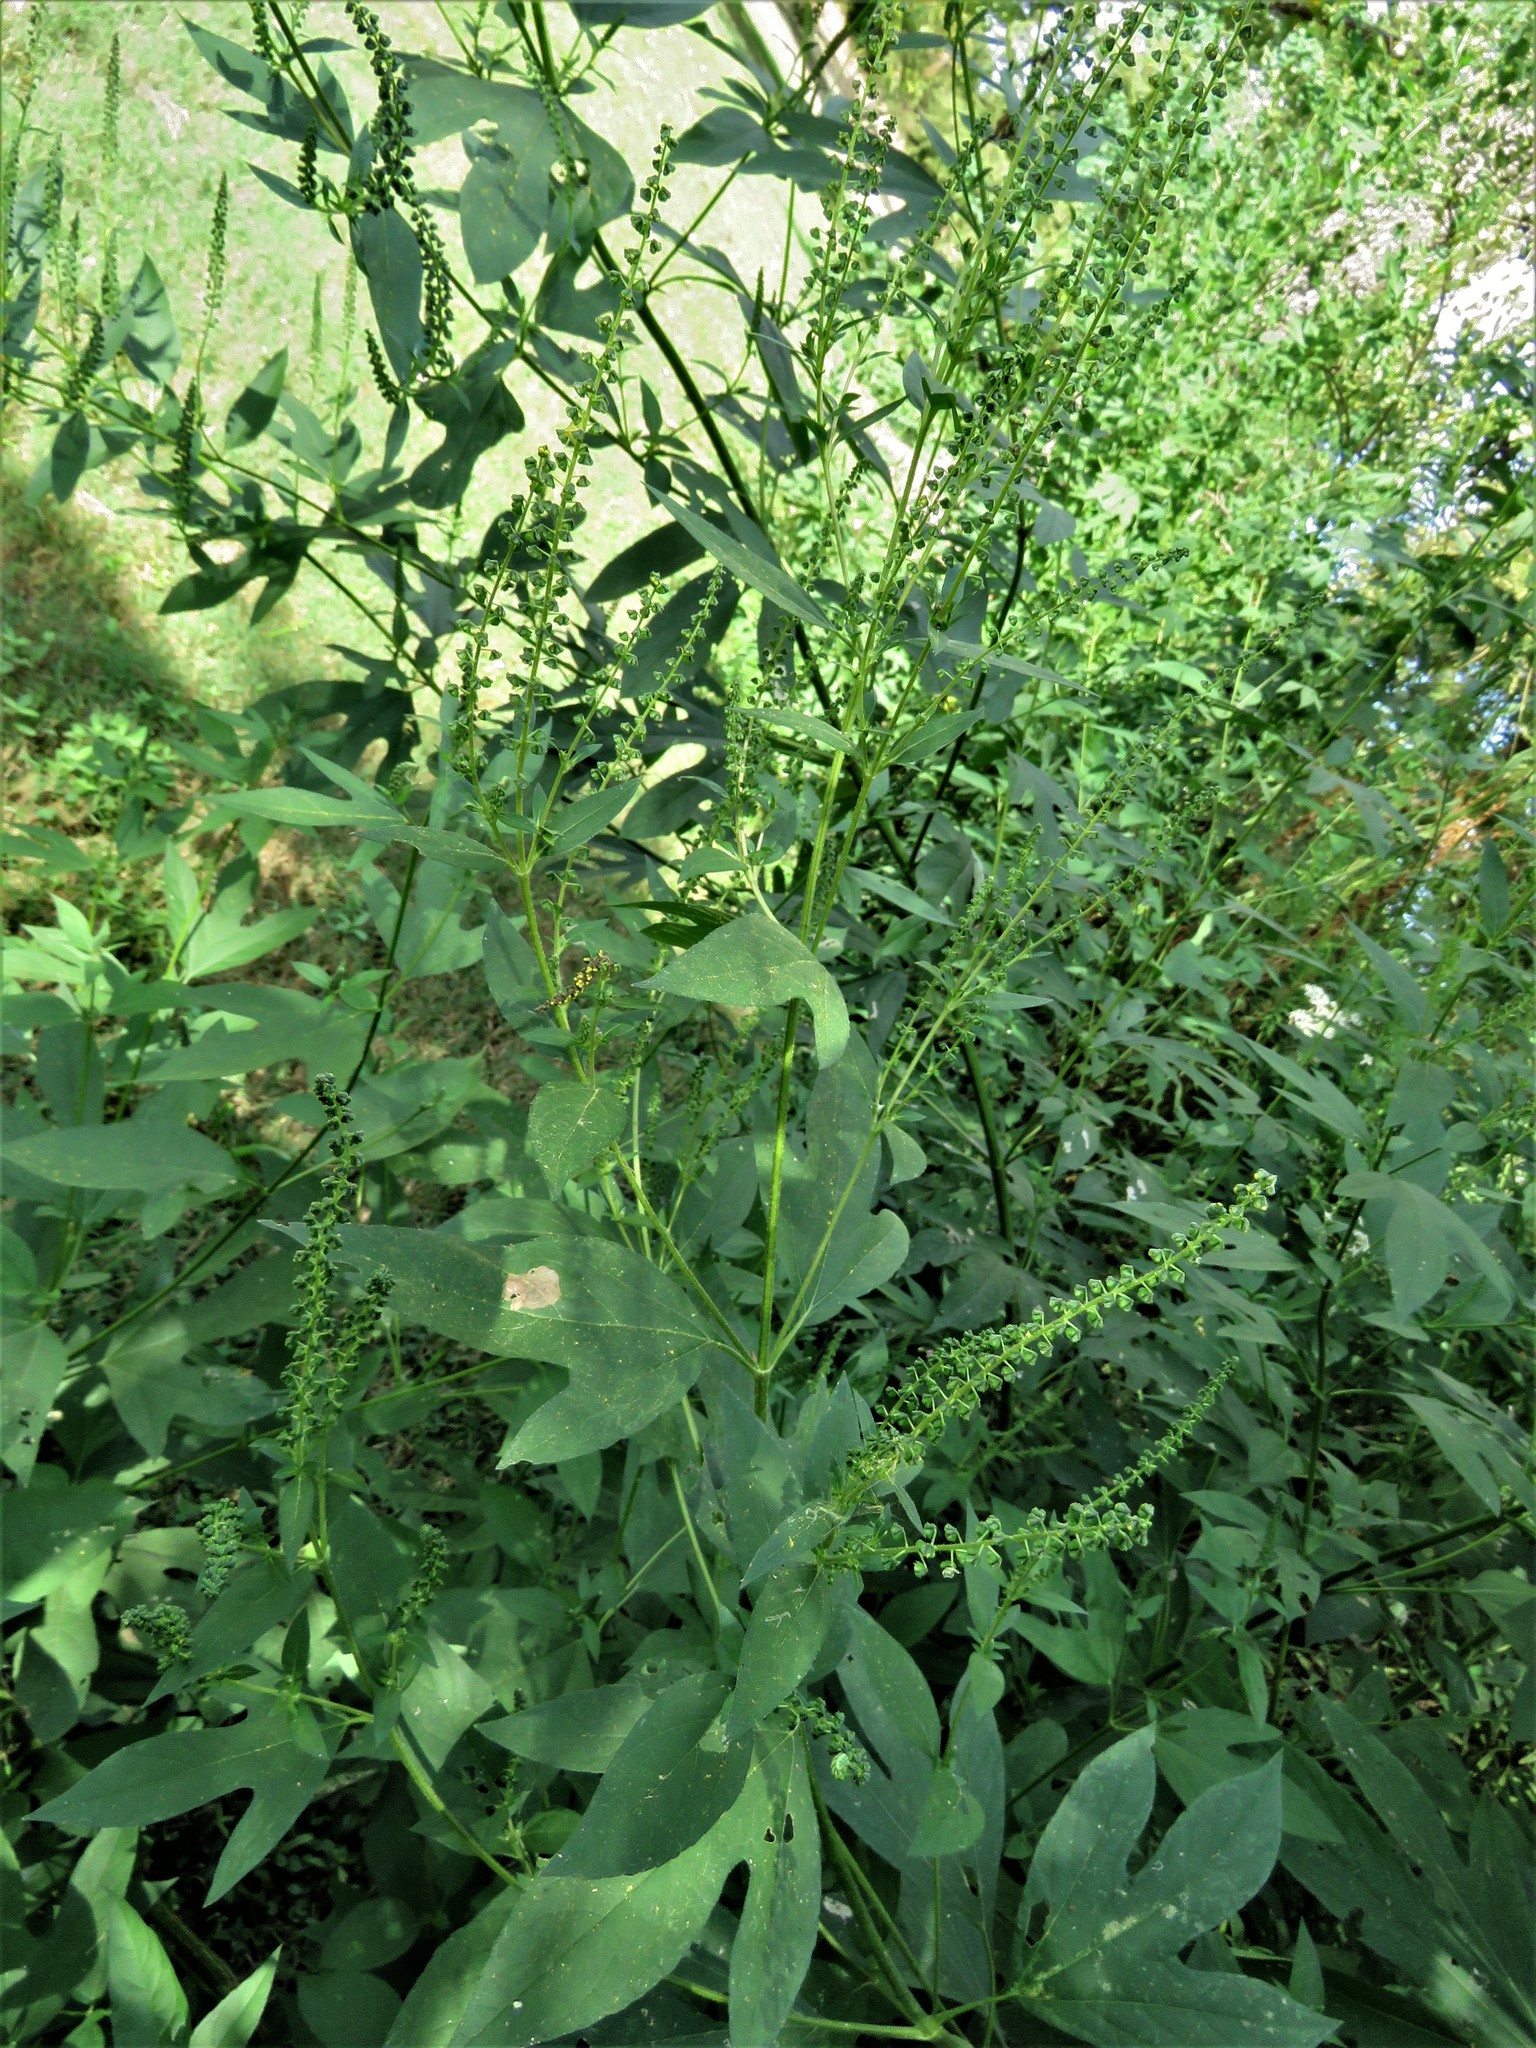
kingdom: Plantae
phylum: Tracheophyta
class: Magnoliopsida
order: Asterales
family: Asteraceae
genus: Ambrosia
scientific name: Ambrosia trifida
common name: Giant ragweed
